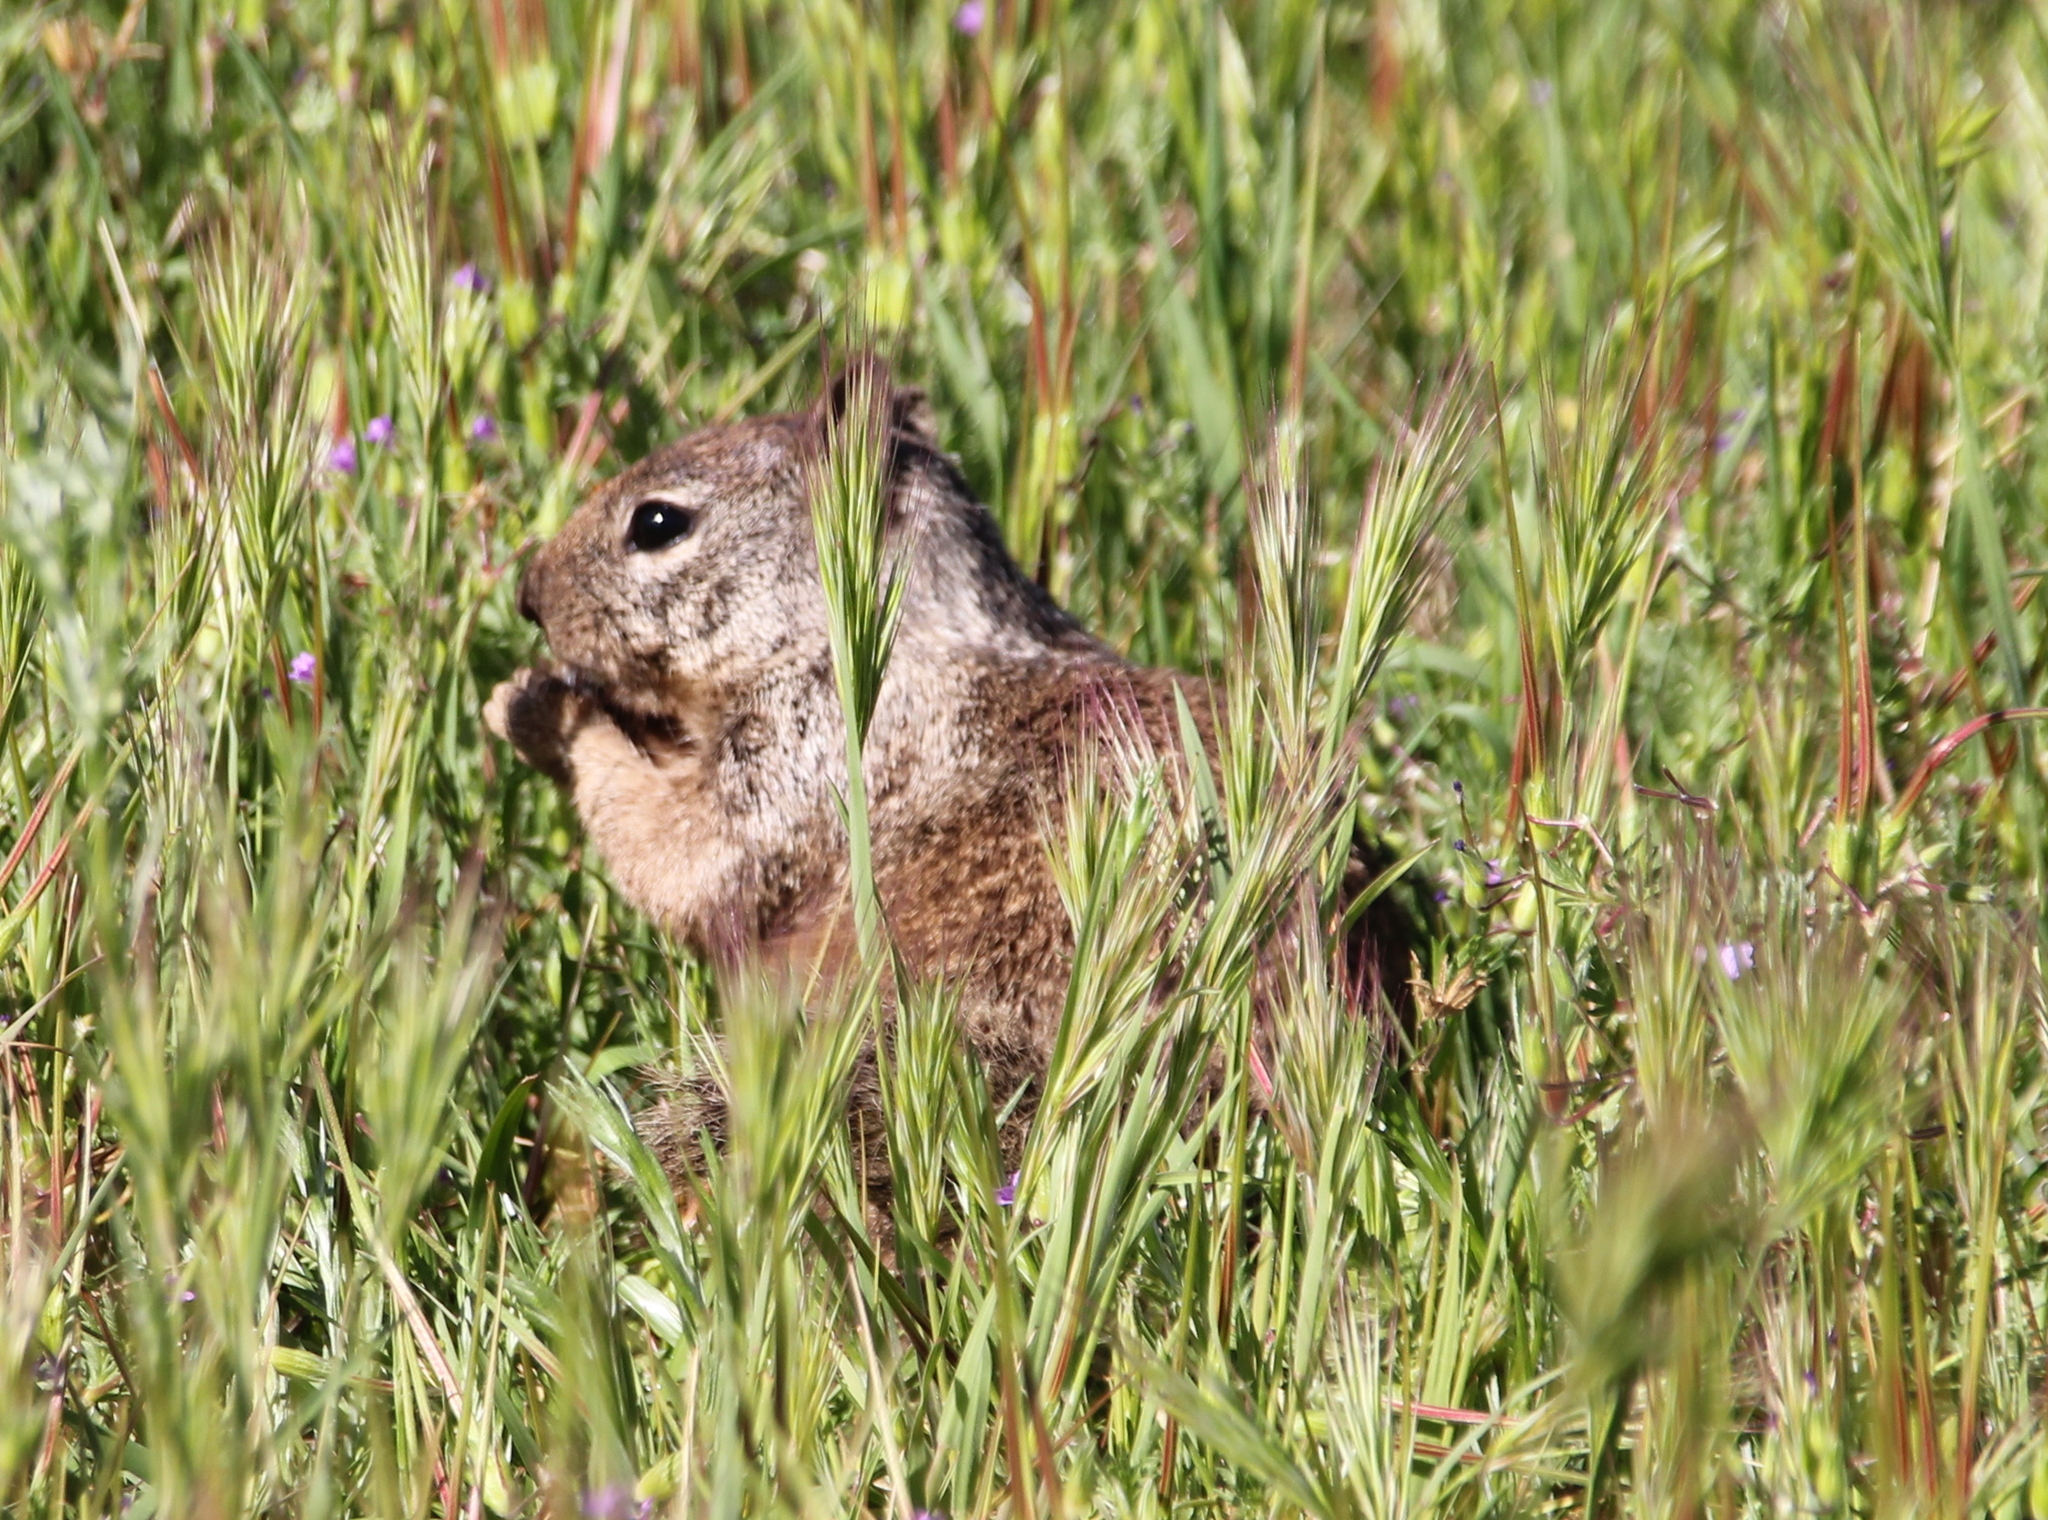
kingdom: Animalia
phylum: Chordata
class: Mammalia
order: Rodentia
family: Sciuridae
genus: Otospermophilus
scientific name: Otospermophilus beecheyi
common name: California ground squirrel
